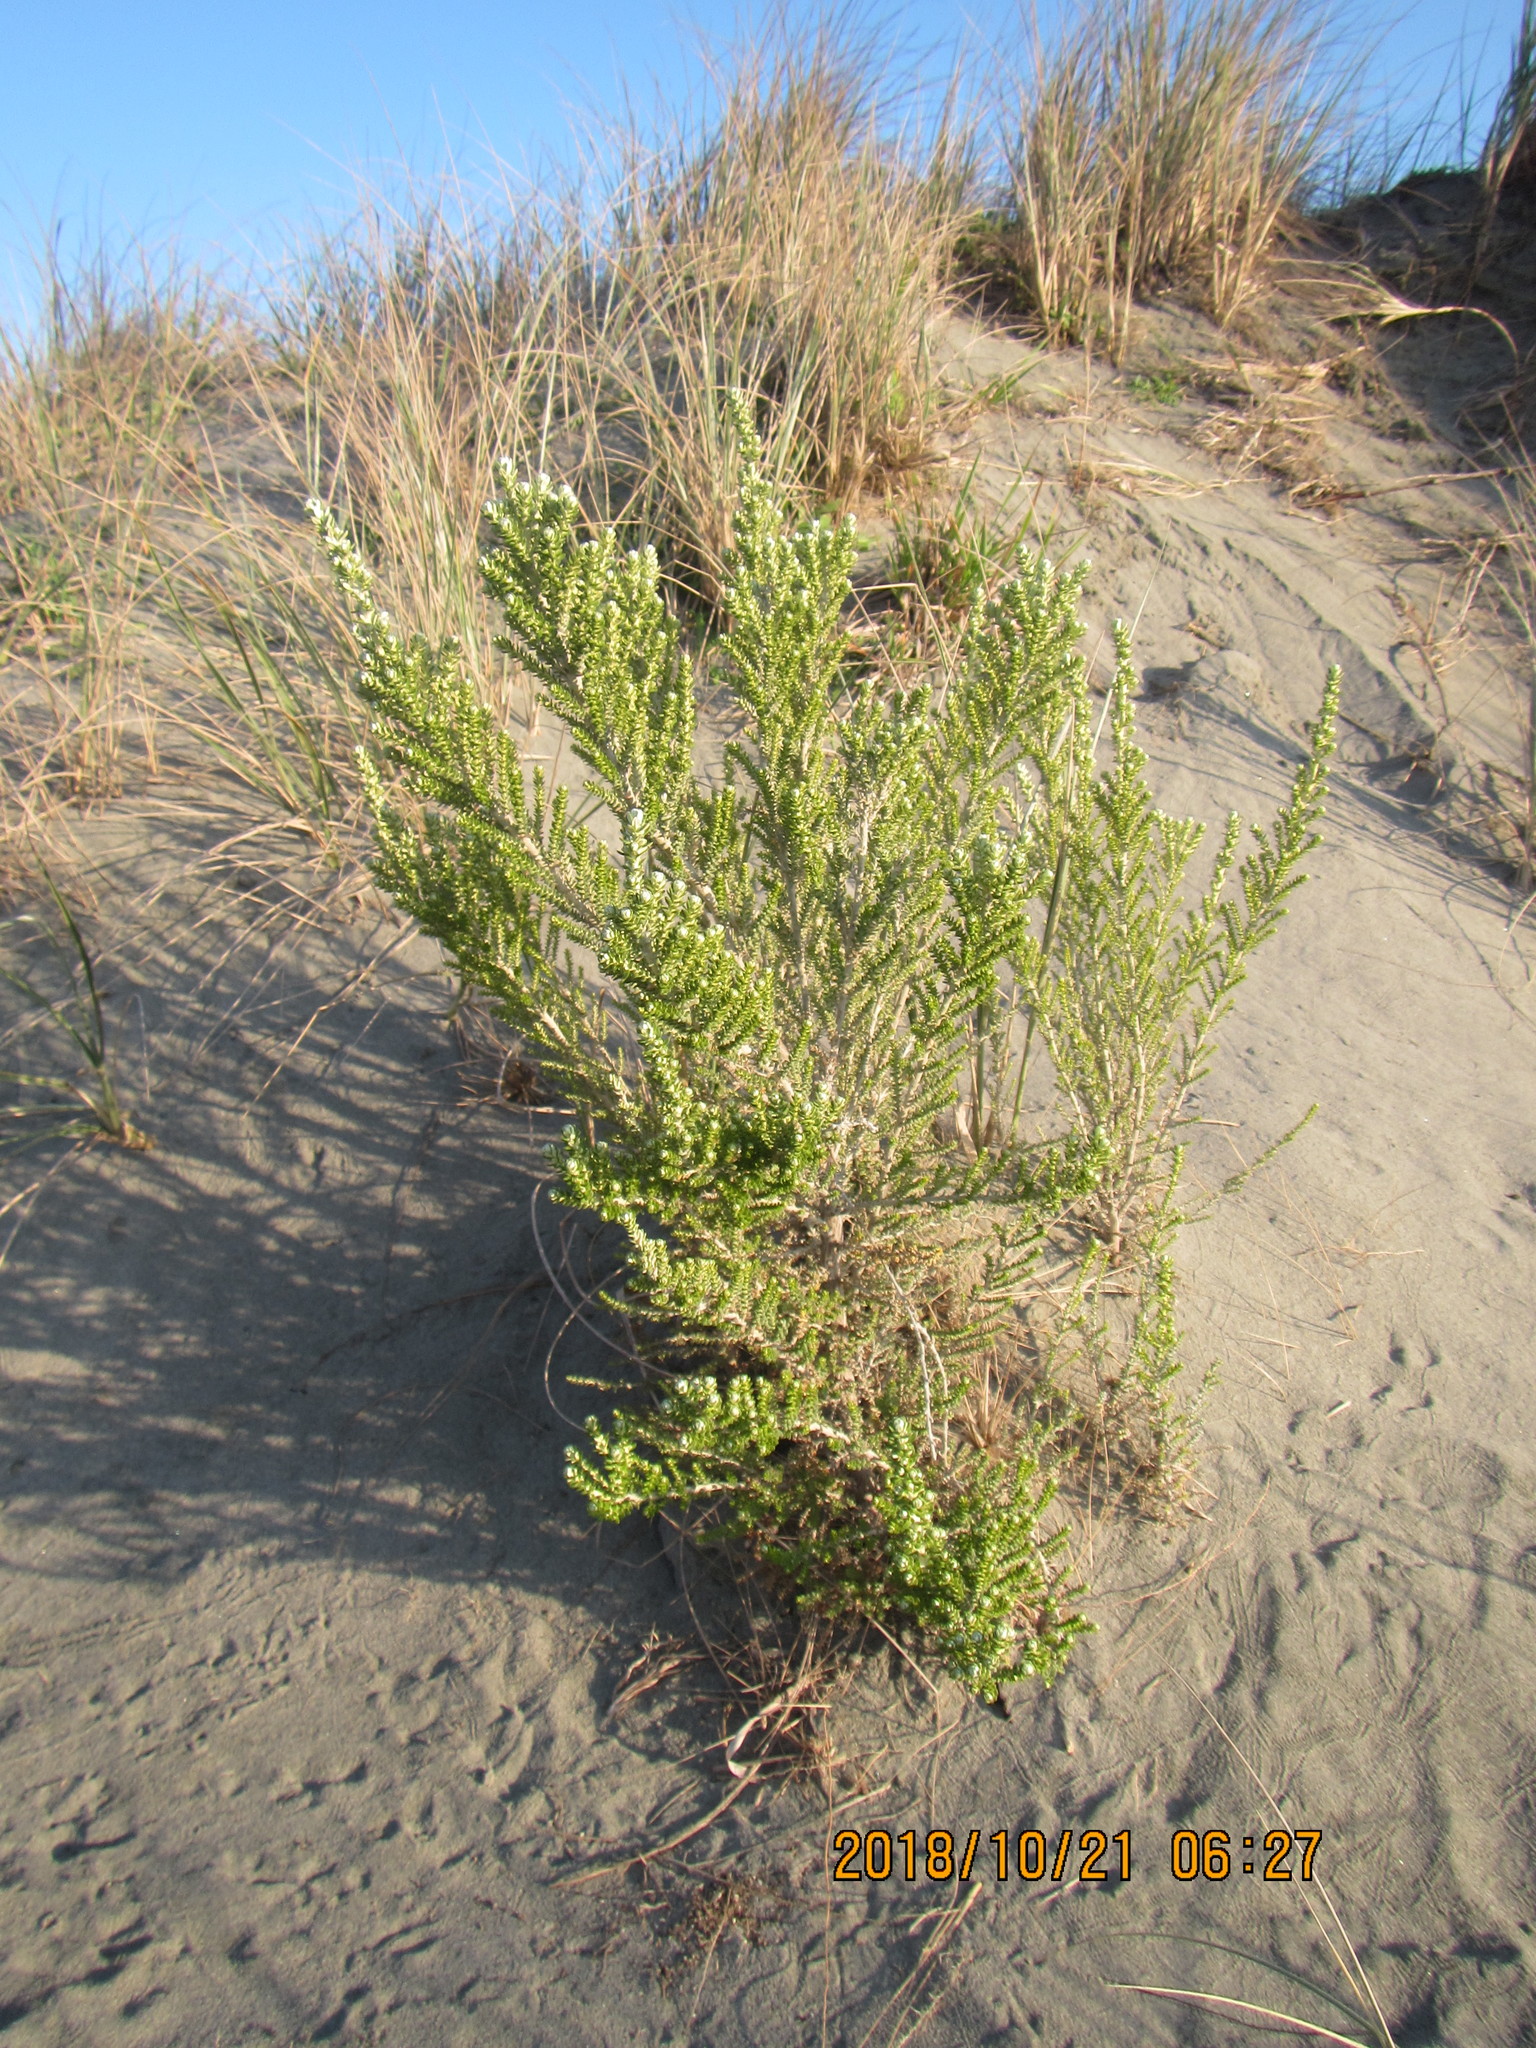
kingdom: Plantae
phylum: Tracheophyta
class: Magnoliopsida
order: Asterales
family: Asteraceae
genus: Ozothamnus
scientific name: Ozothamnus leptophyllus
